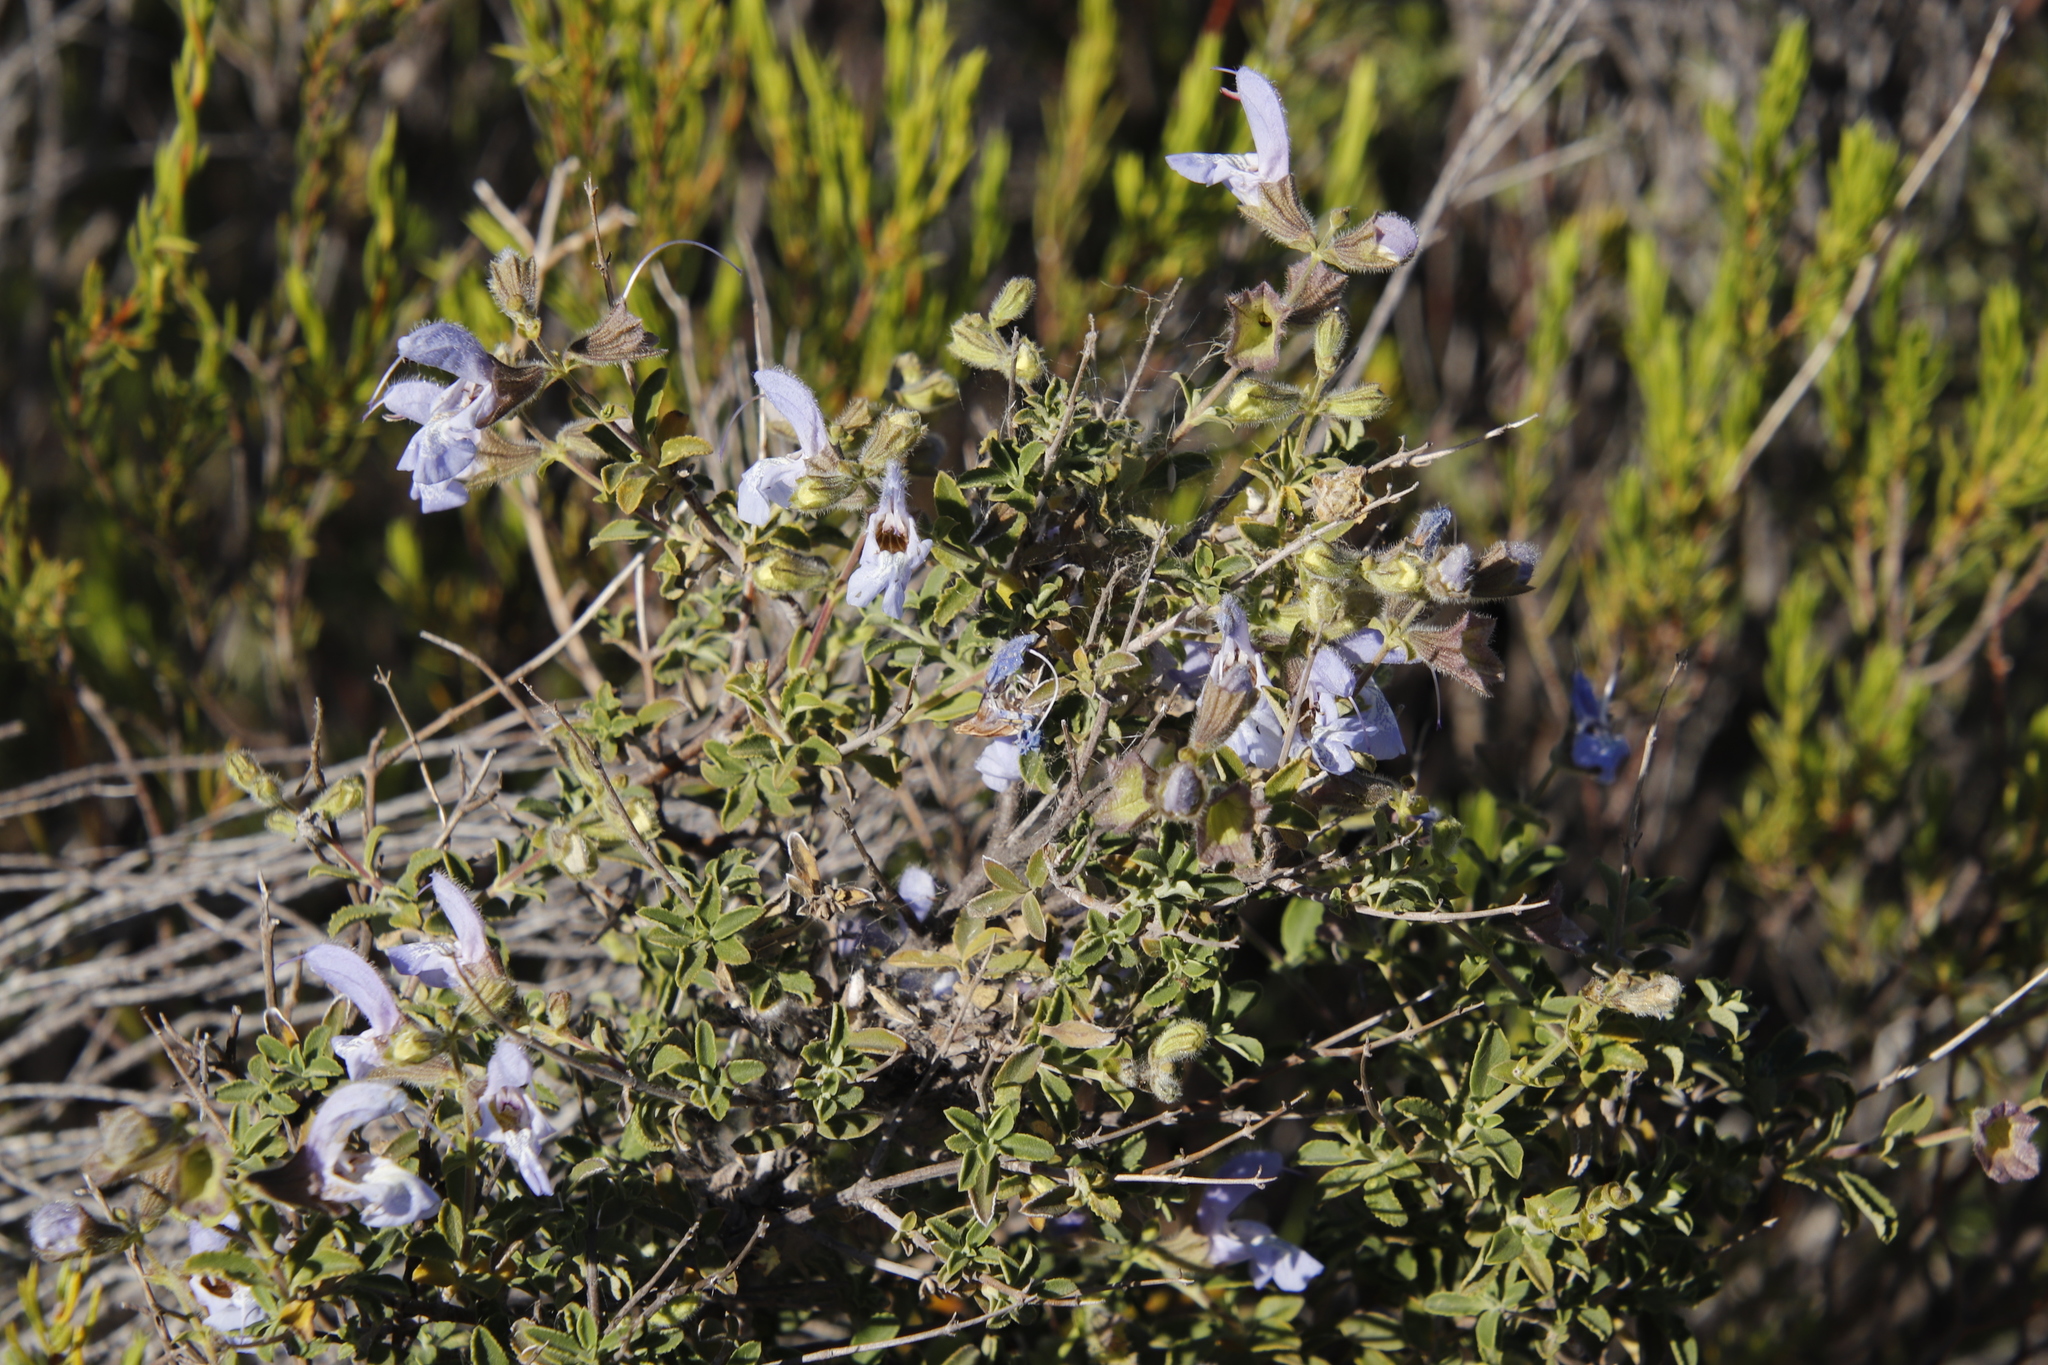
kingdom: Plantae
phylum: Tracheophyta
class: Magnoliopsida
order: Lamiales
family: Lamiaceae
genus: Salvia
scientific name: Salvia dentata
